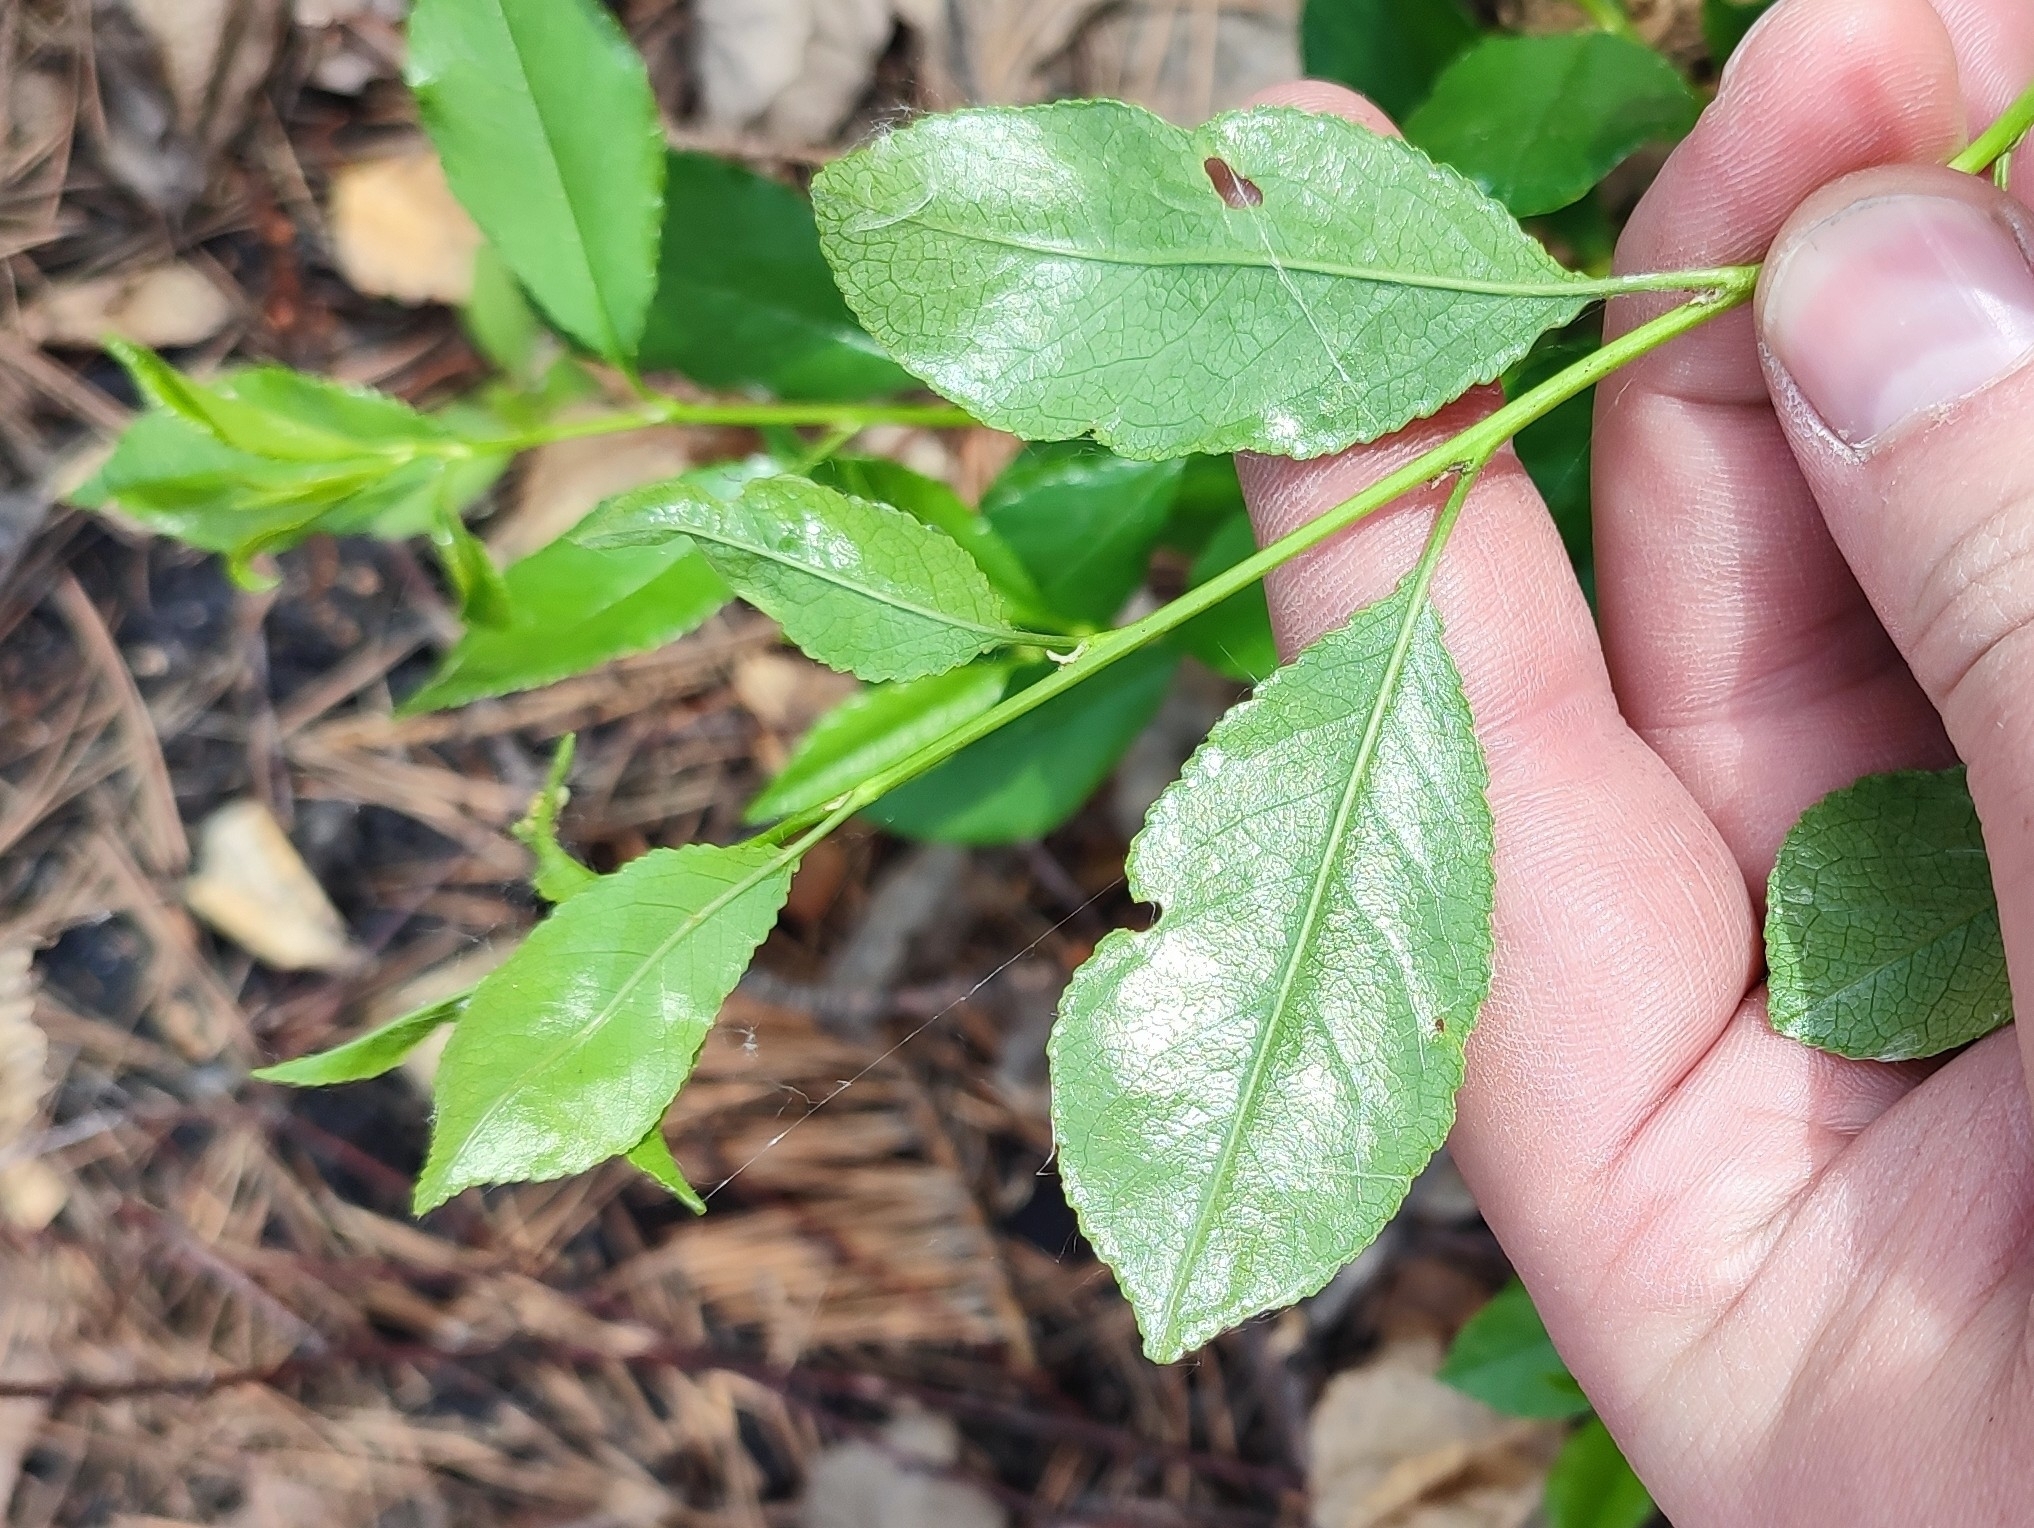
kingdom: Plantae
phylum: Tracheophyta
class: Magnoliopsida
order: Rosales
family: Rosaceae
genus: Prunus
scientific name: Prunus fruticosa
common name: European dwarf cherry
